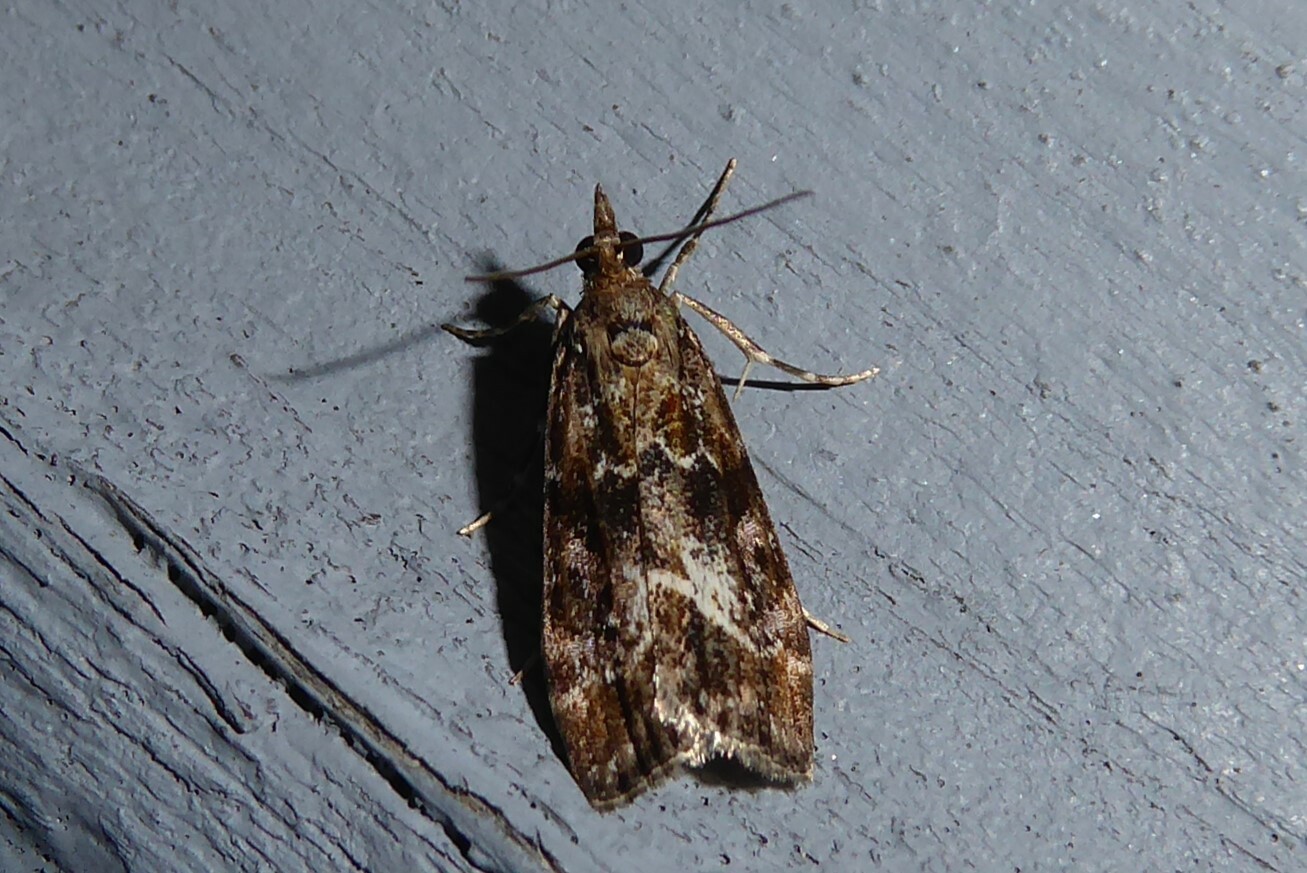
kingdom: Animalia
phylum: Arthropoda
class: Insecta
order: Lepidoptera
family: Crambidae
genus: Eudonia
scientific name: Eudonia legnota
